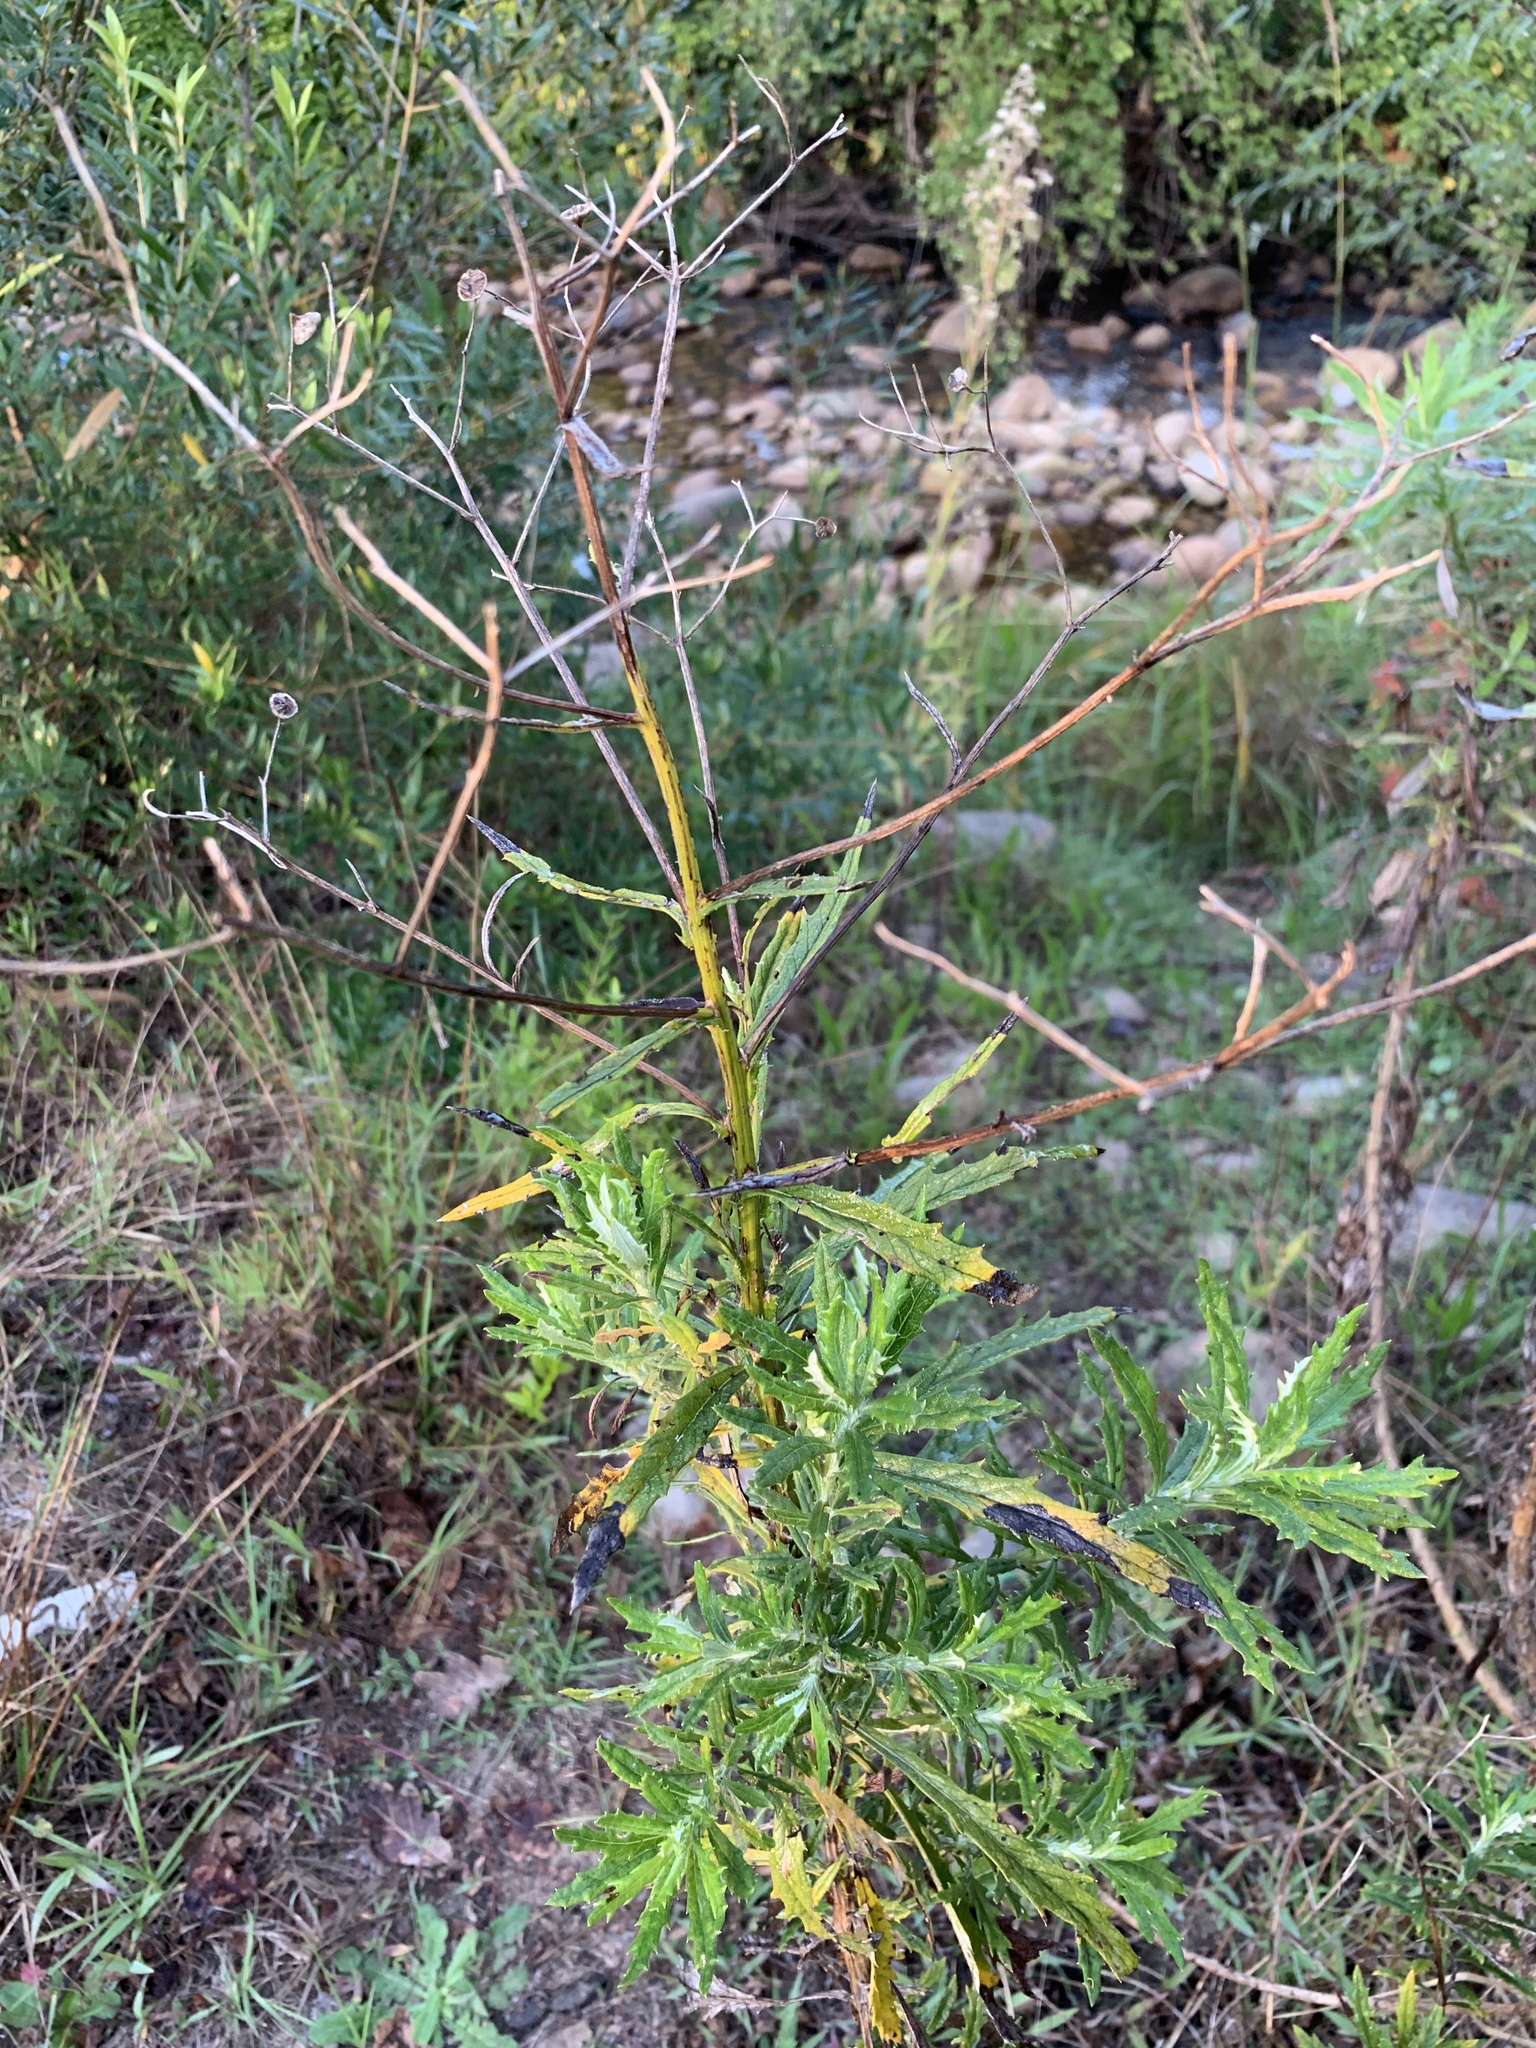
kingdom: Plantae
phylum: Tracheophyta
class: Magnoliopsida
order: Asterales
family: Asteraceae
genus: Senecio
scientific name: Senecio pterophorus
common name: Shoddy ragwort
